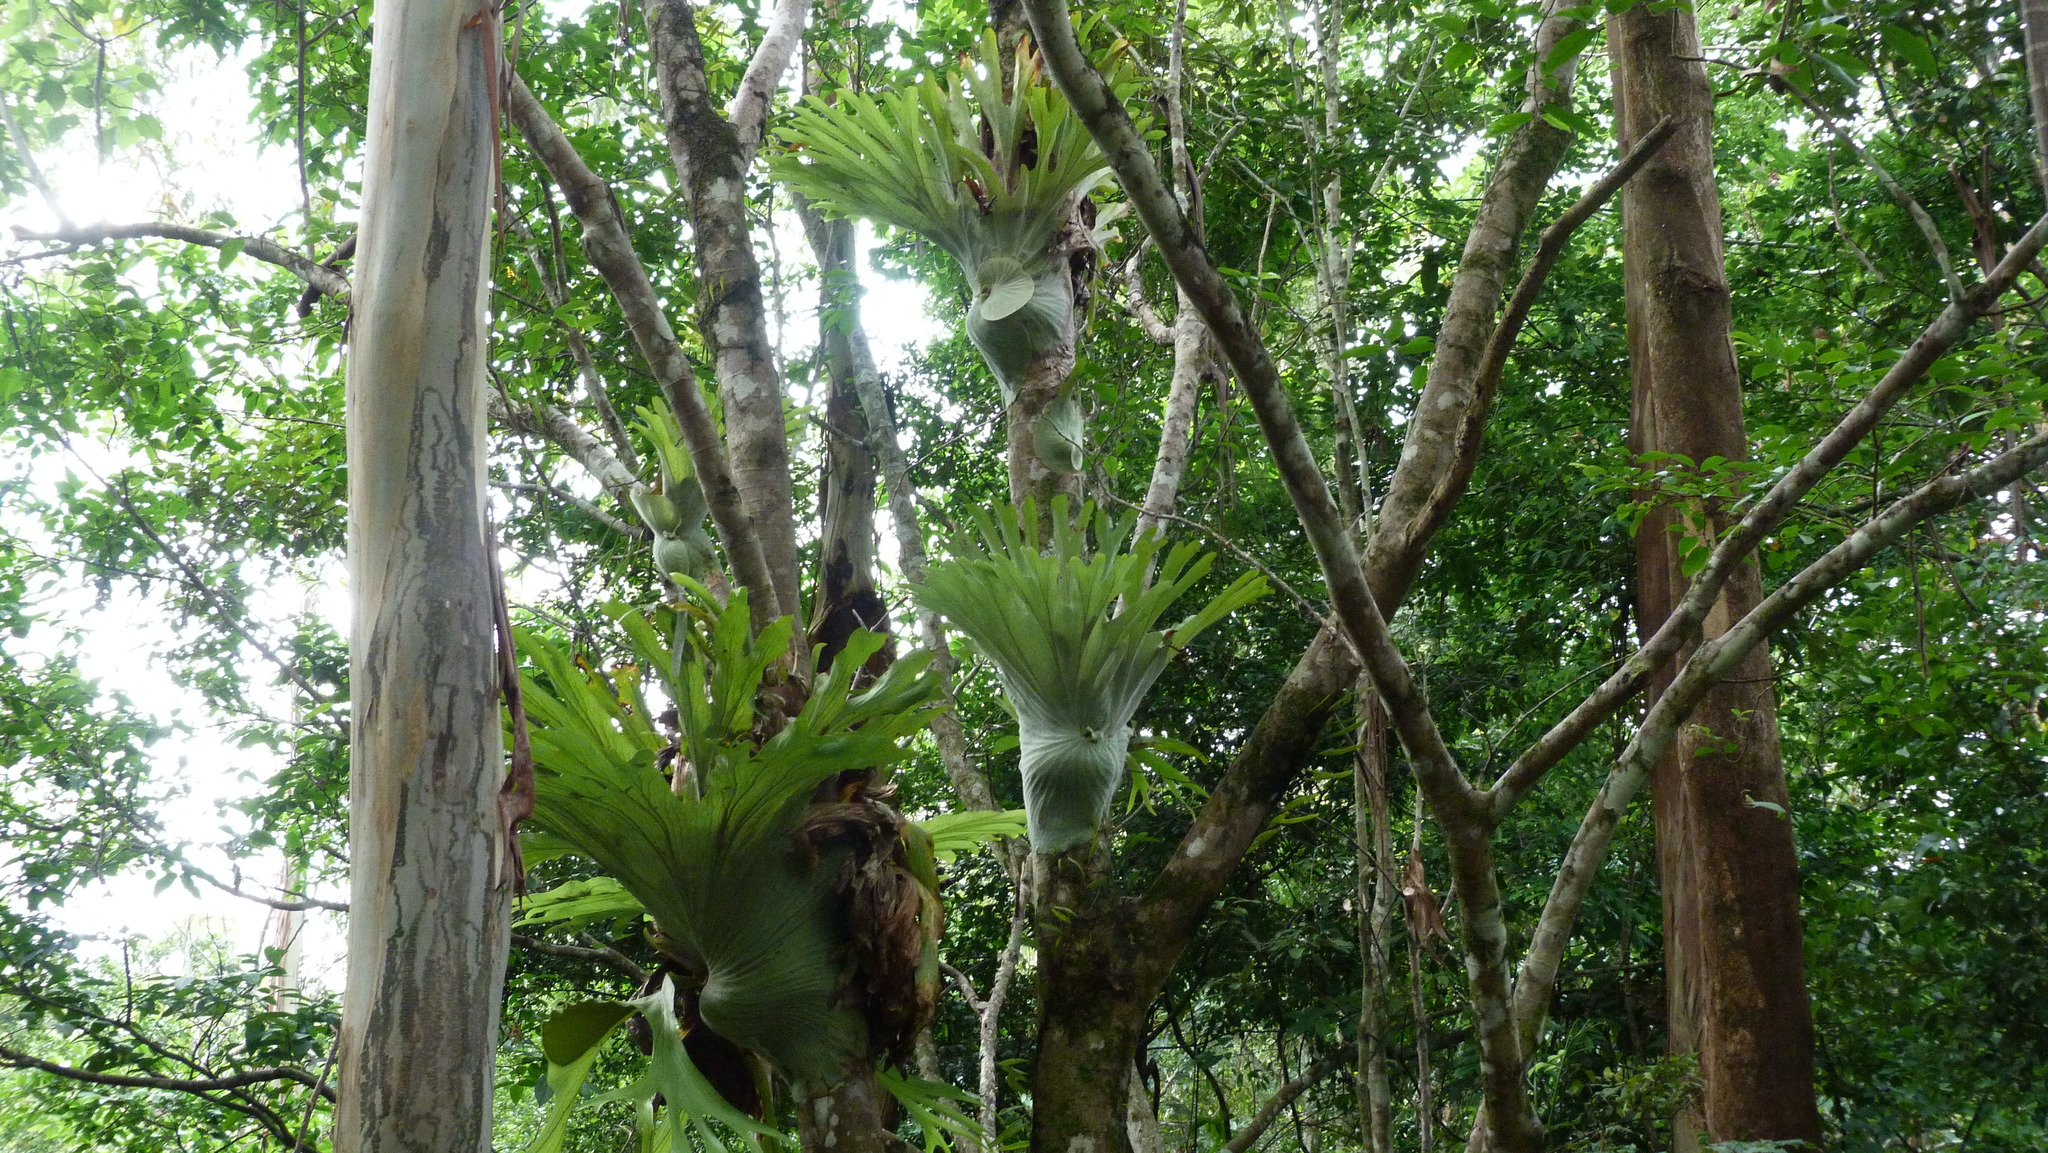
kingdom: Plantae
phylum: Tracheophyta
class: Polypodiopsida
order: Polypodiales
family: Polypodiaceae
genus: Platycerium
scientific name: Platycerium superbum
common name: Staghorn fern
